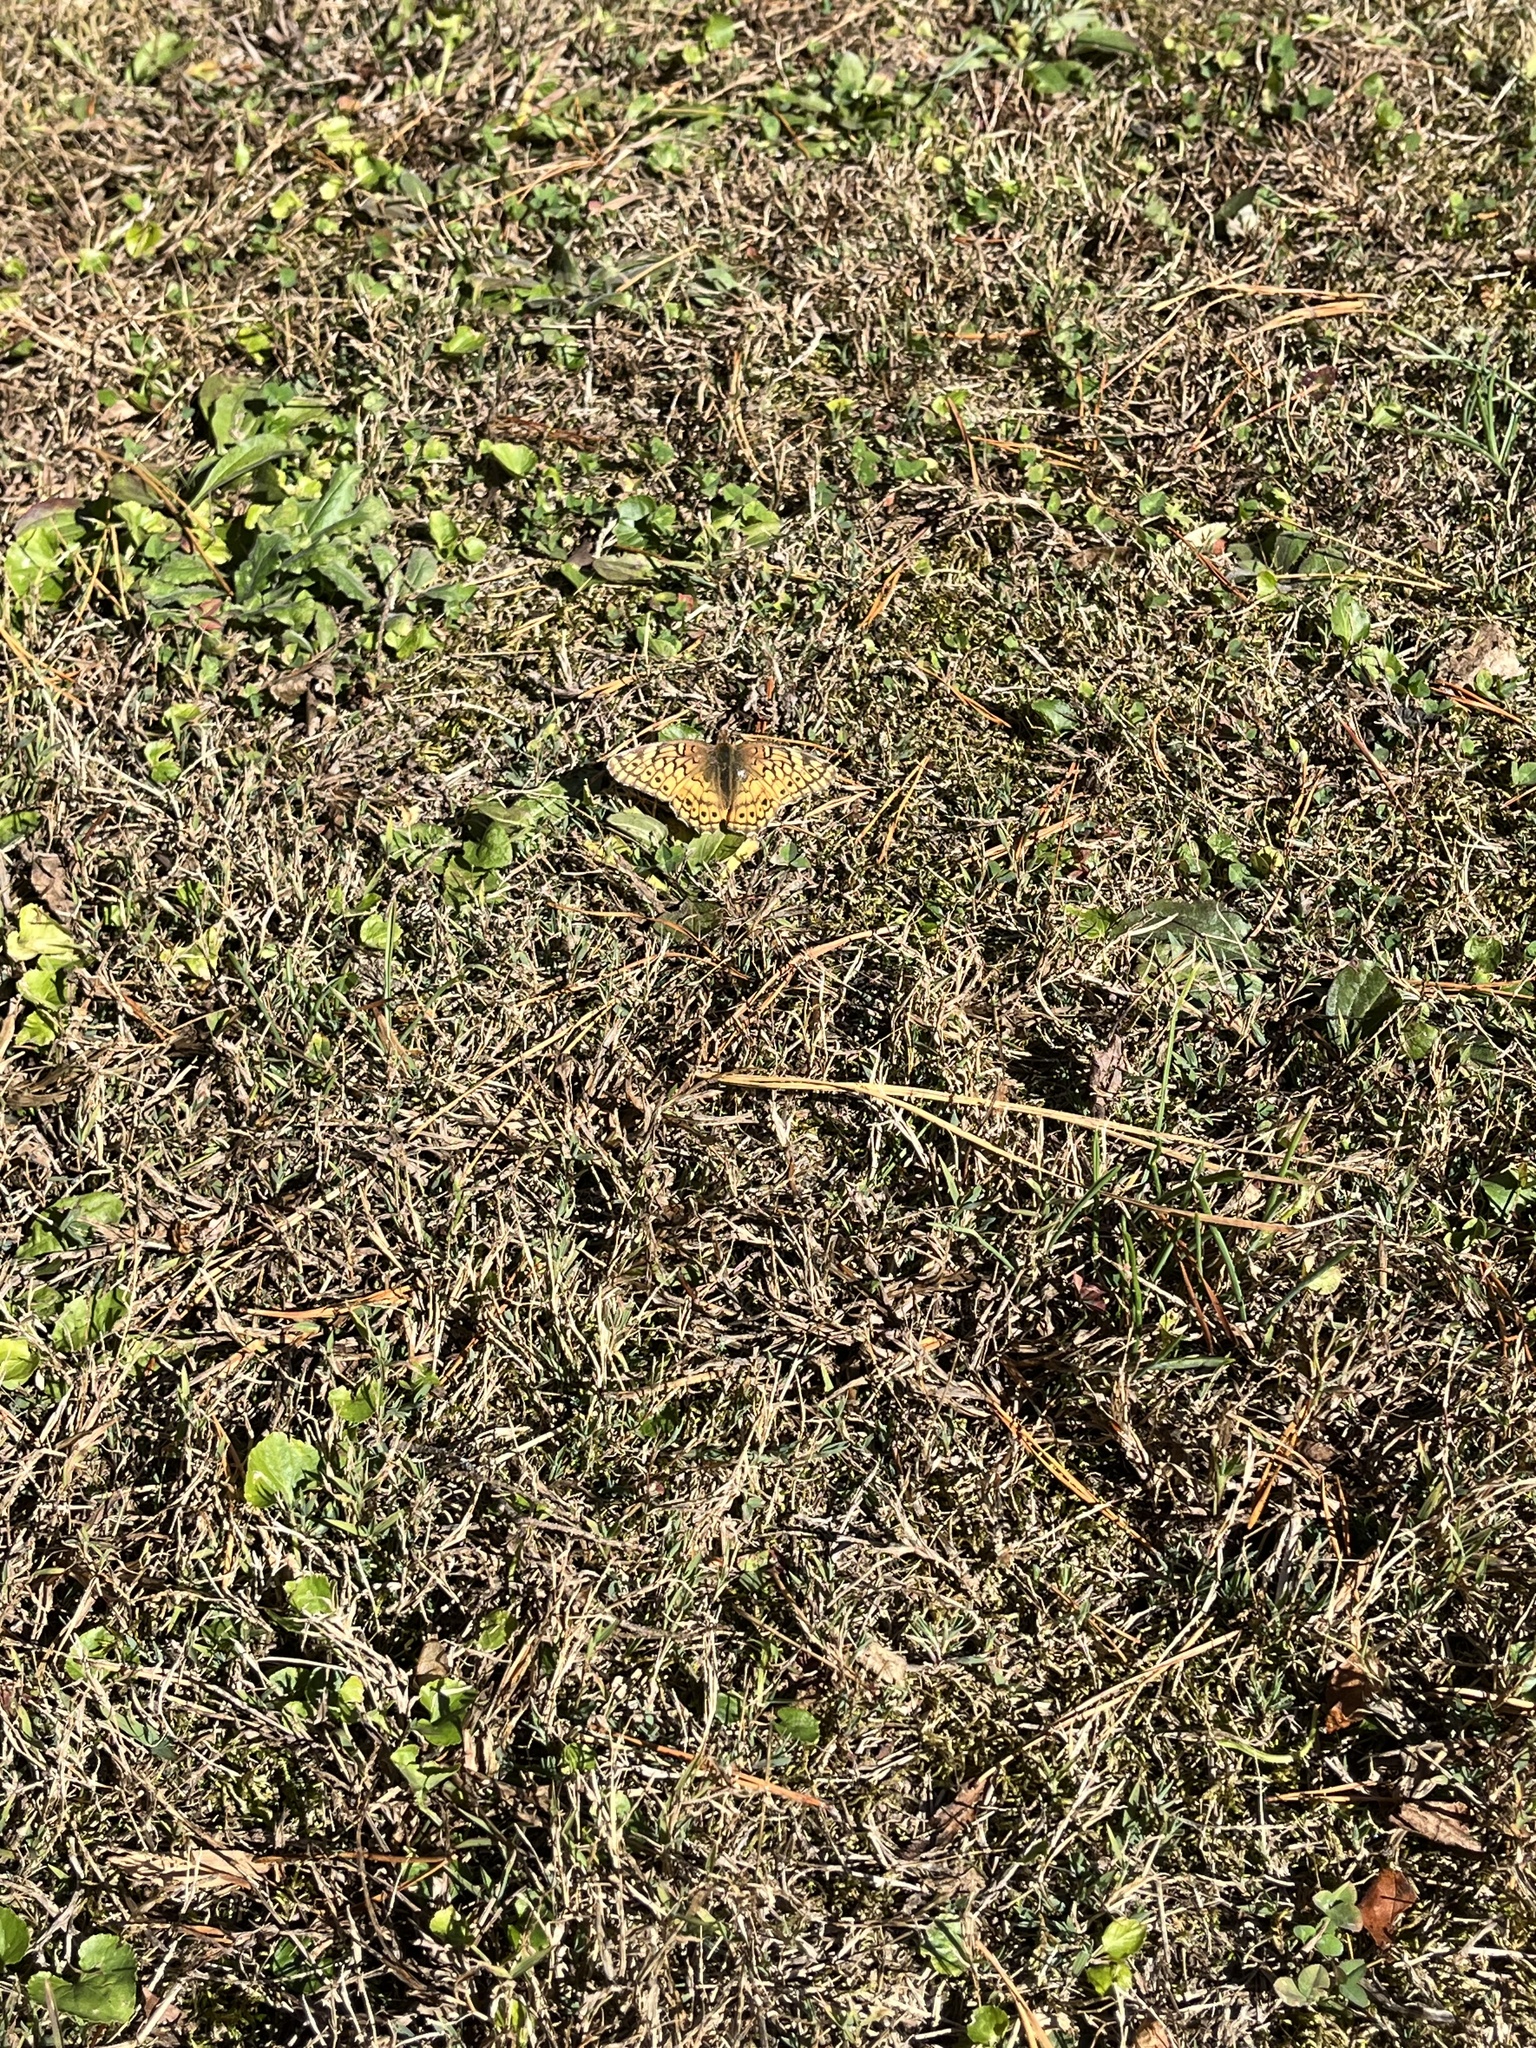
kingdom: Animalia
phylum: Arthropoda
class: Insecta
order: Lepidoptera
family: Nymphalidae
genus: Euptoieta
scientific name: Euptoieta claudia
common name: Variegated fritillary
